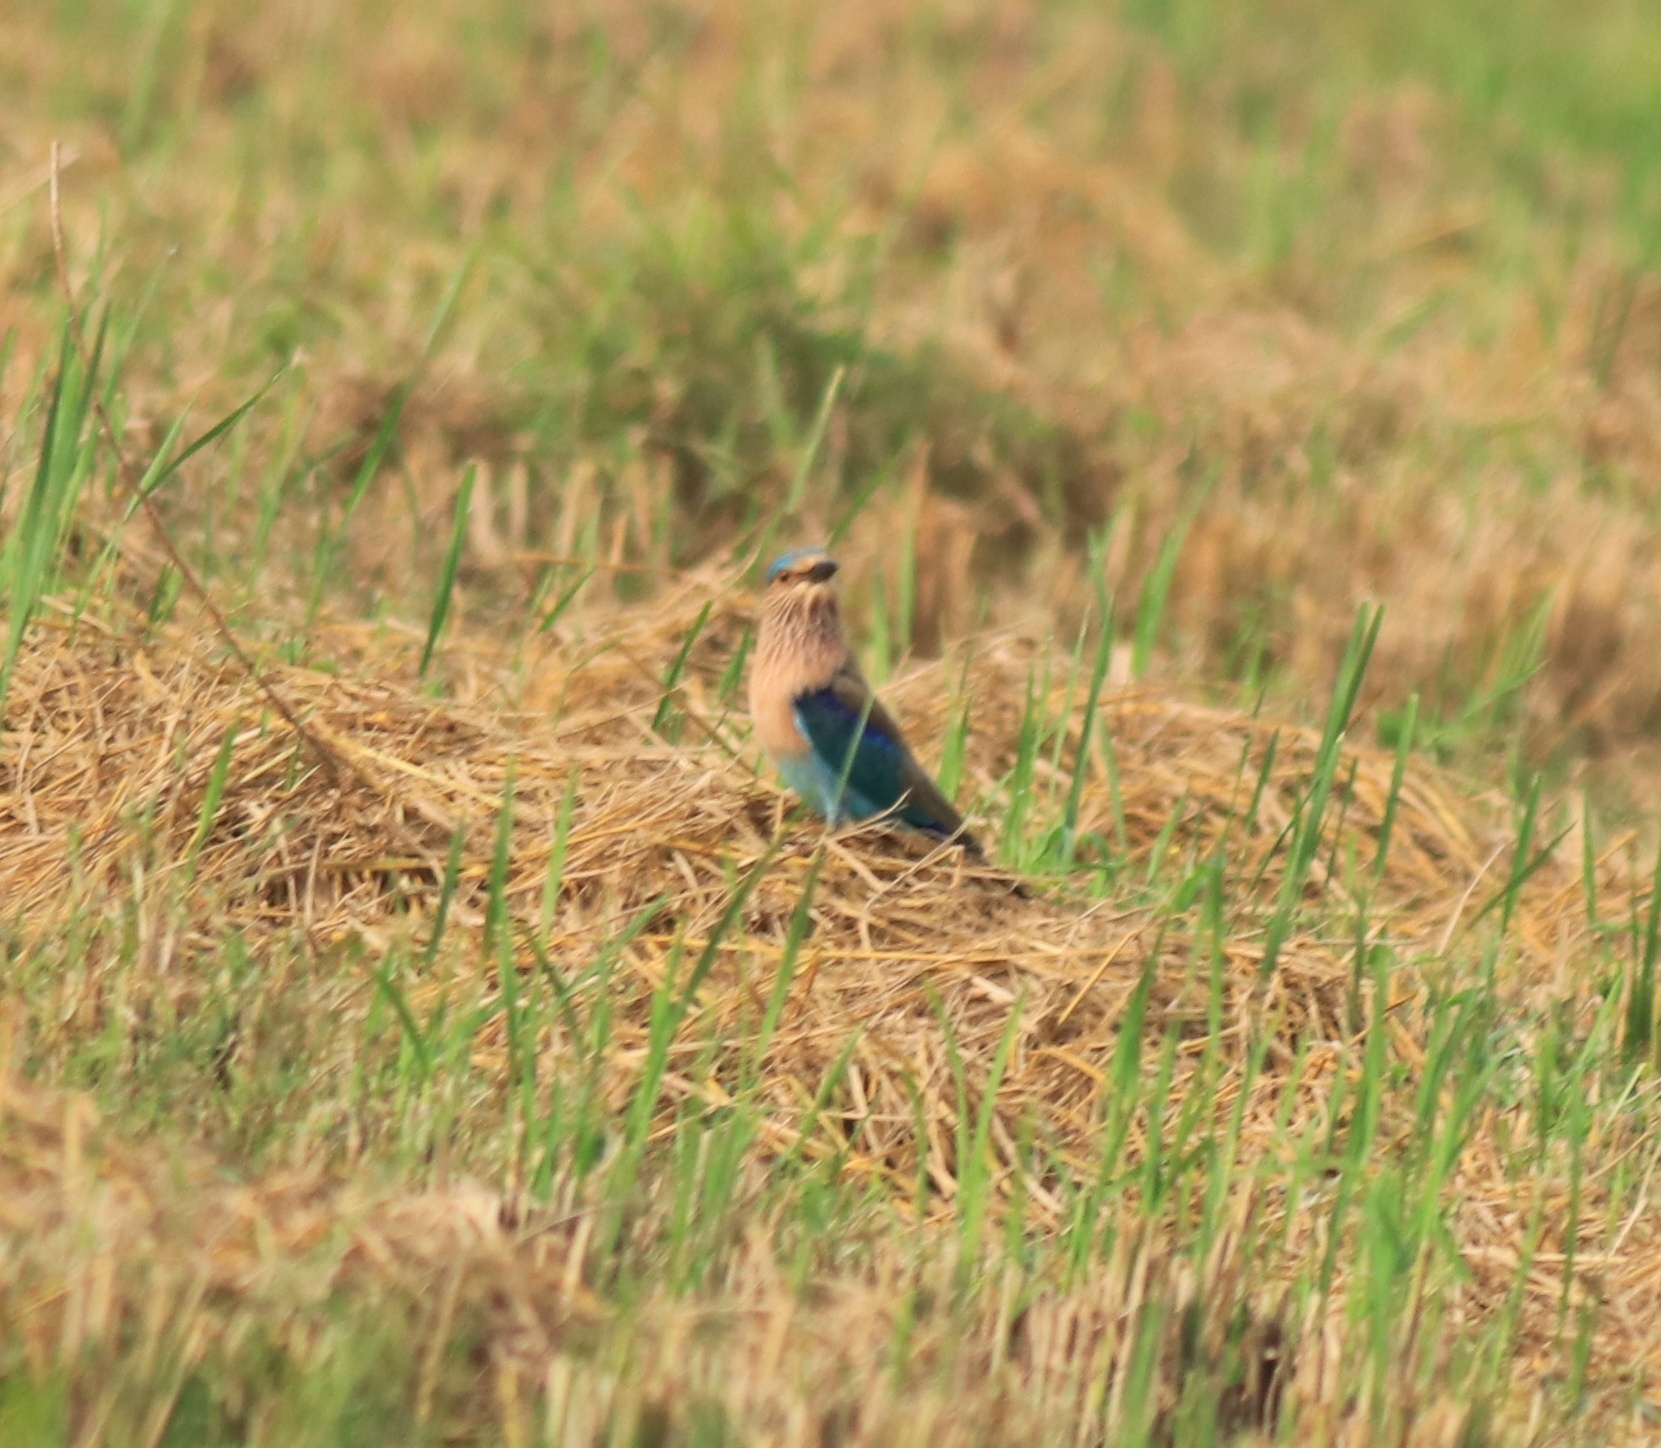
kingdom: Animalia
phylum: Chordata
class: Aves
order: Coraciiformes
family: Coraciidae
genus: Coracias
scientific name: Coracias benghalensis
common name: Indian roller
